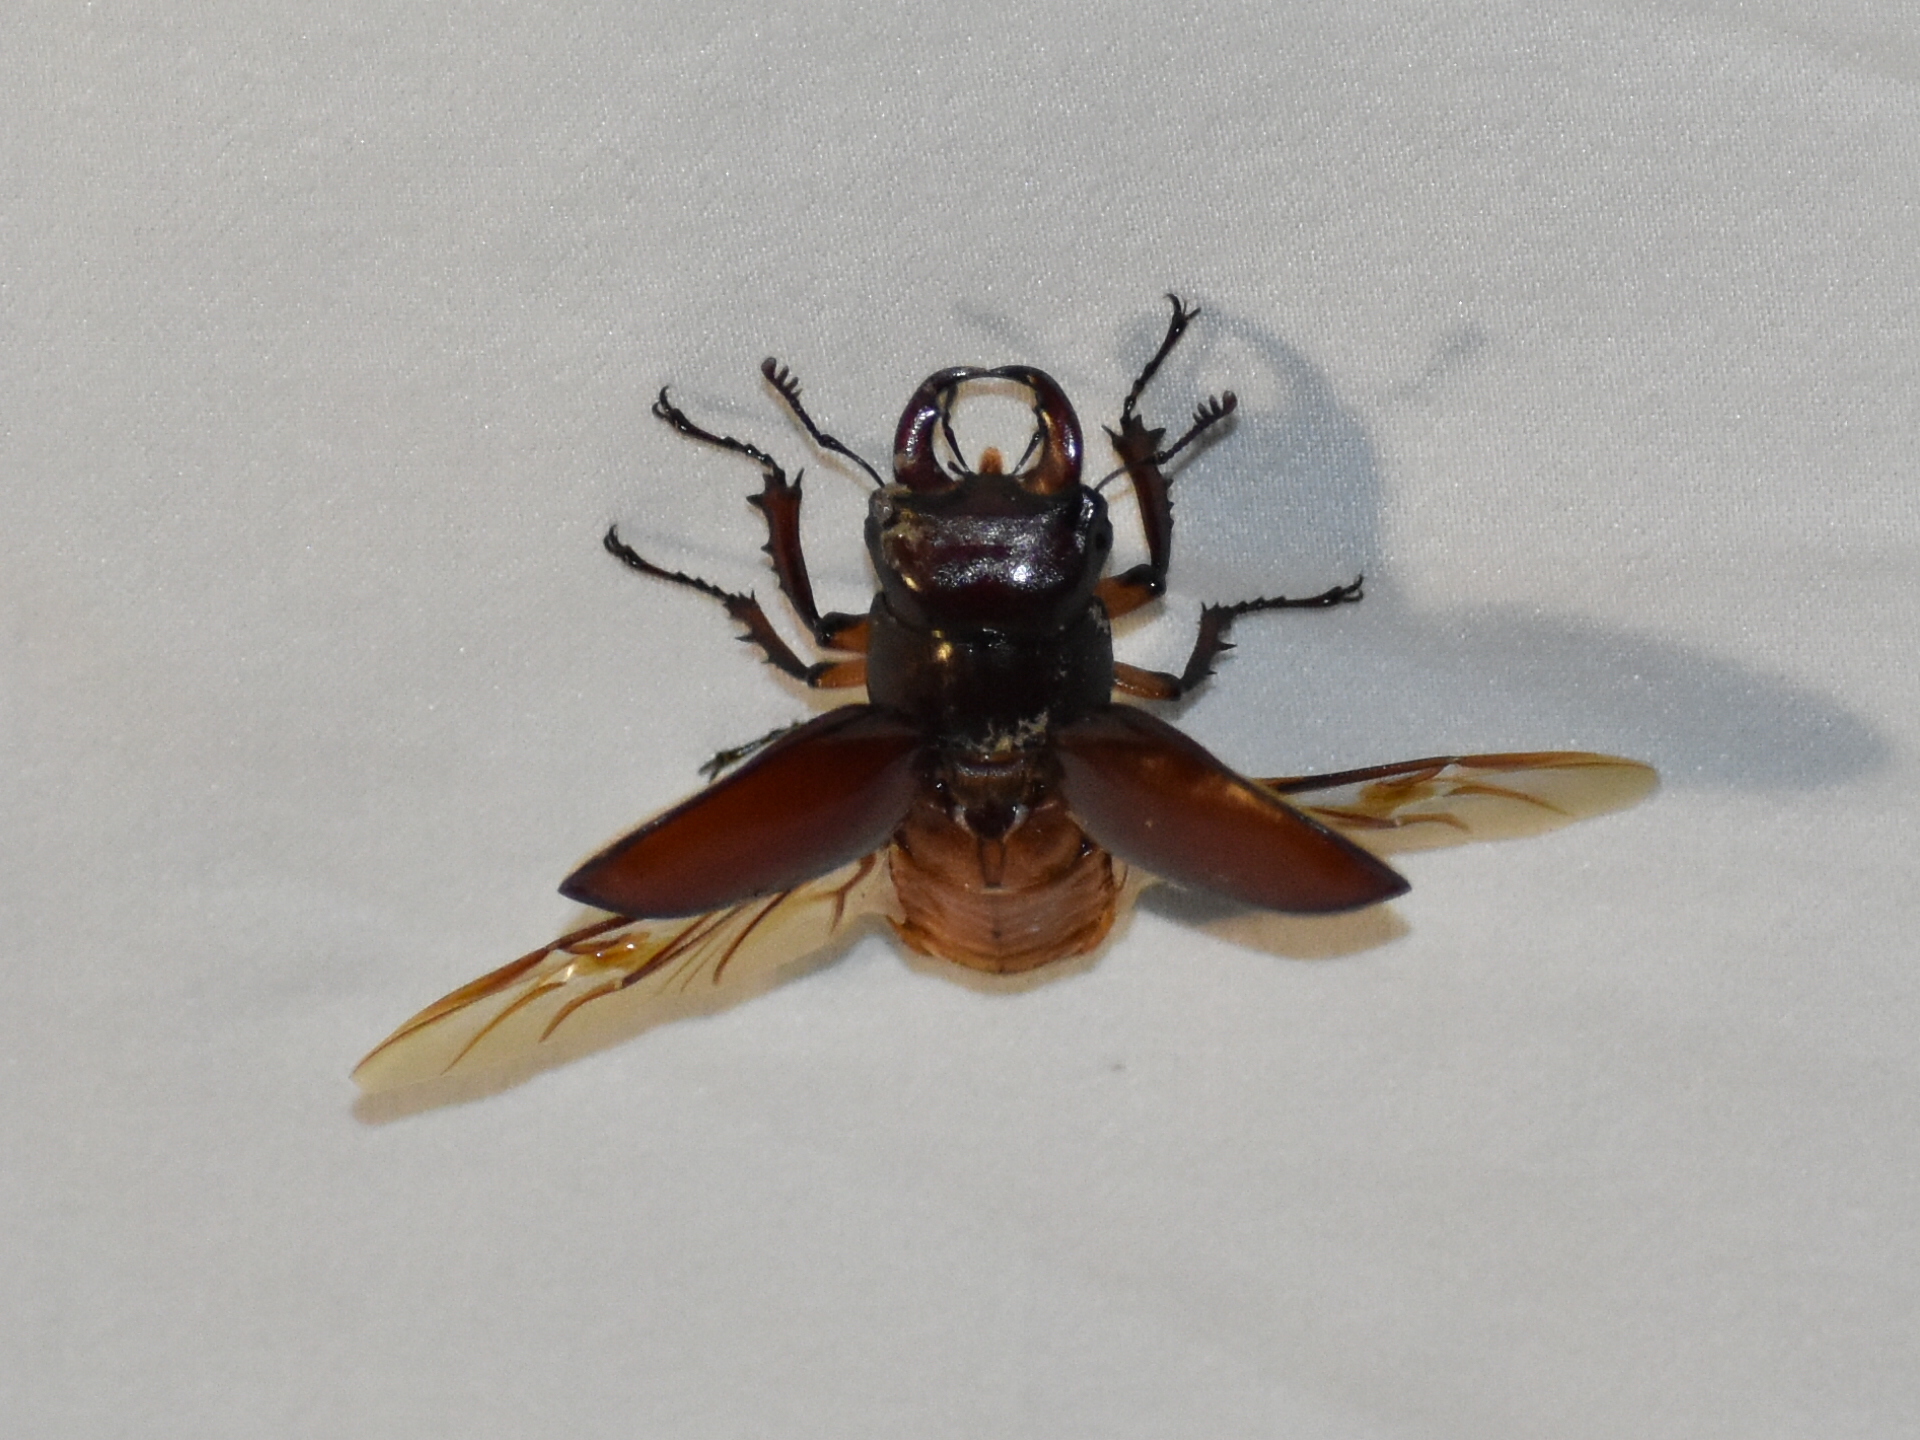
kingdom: Animalia
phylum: Arthropoda
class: Insecta
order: Coleoptera
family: Lucanidae
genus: Lucanus
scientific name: Lucanus capreolus
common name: Stag beetle
